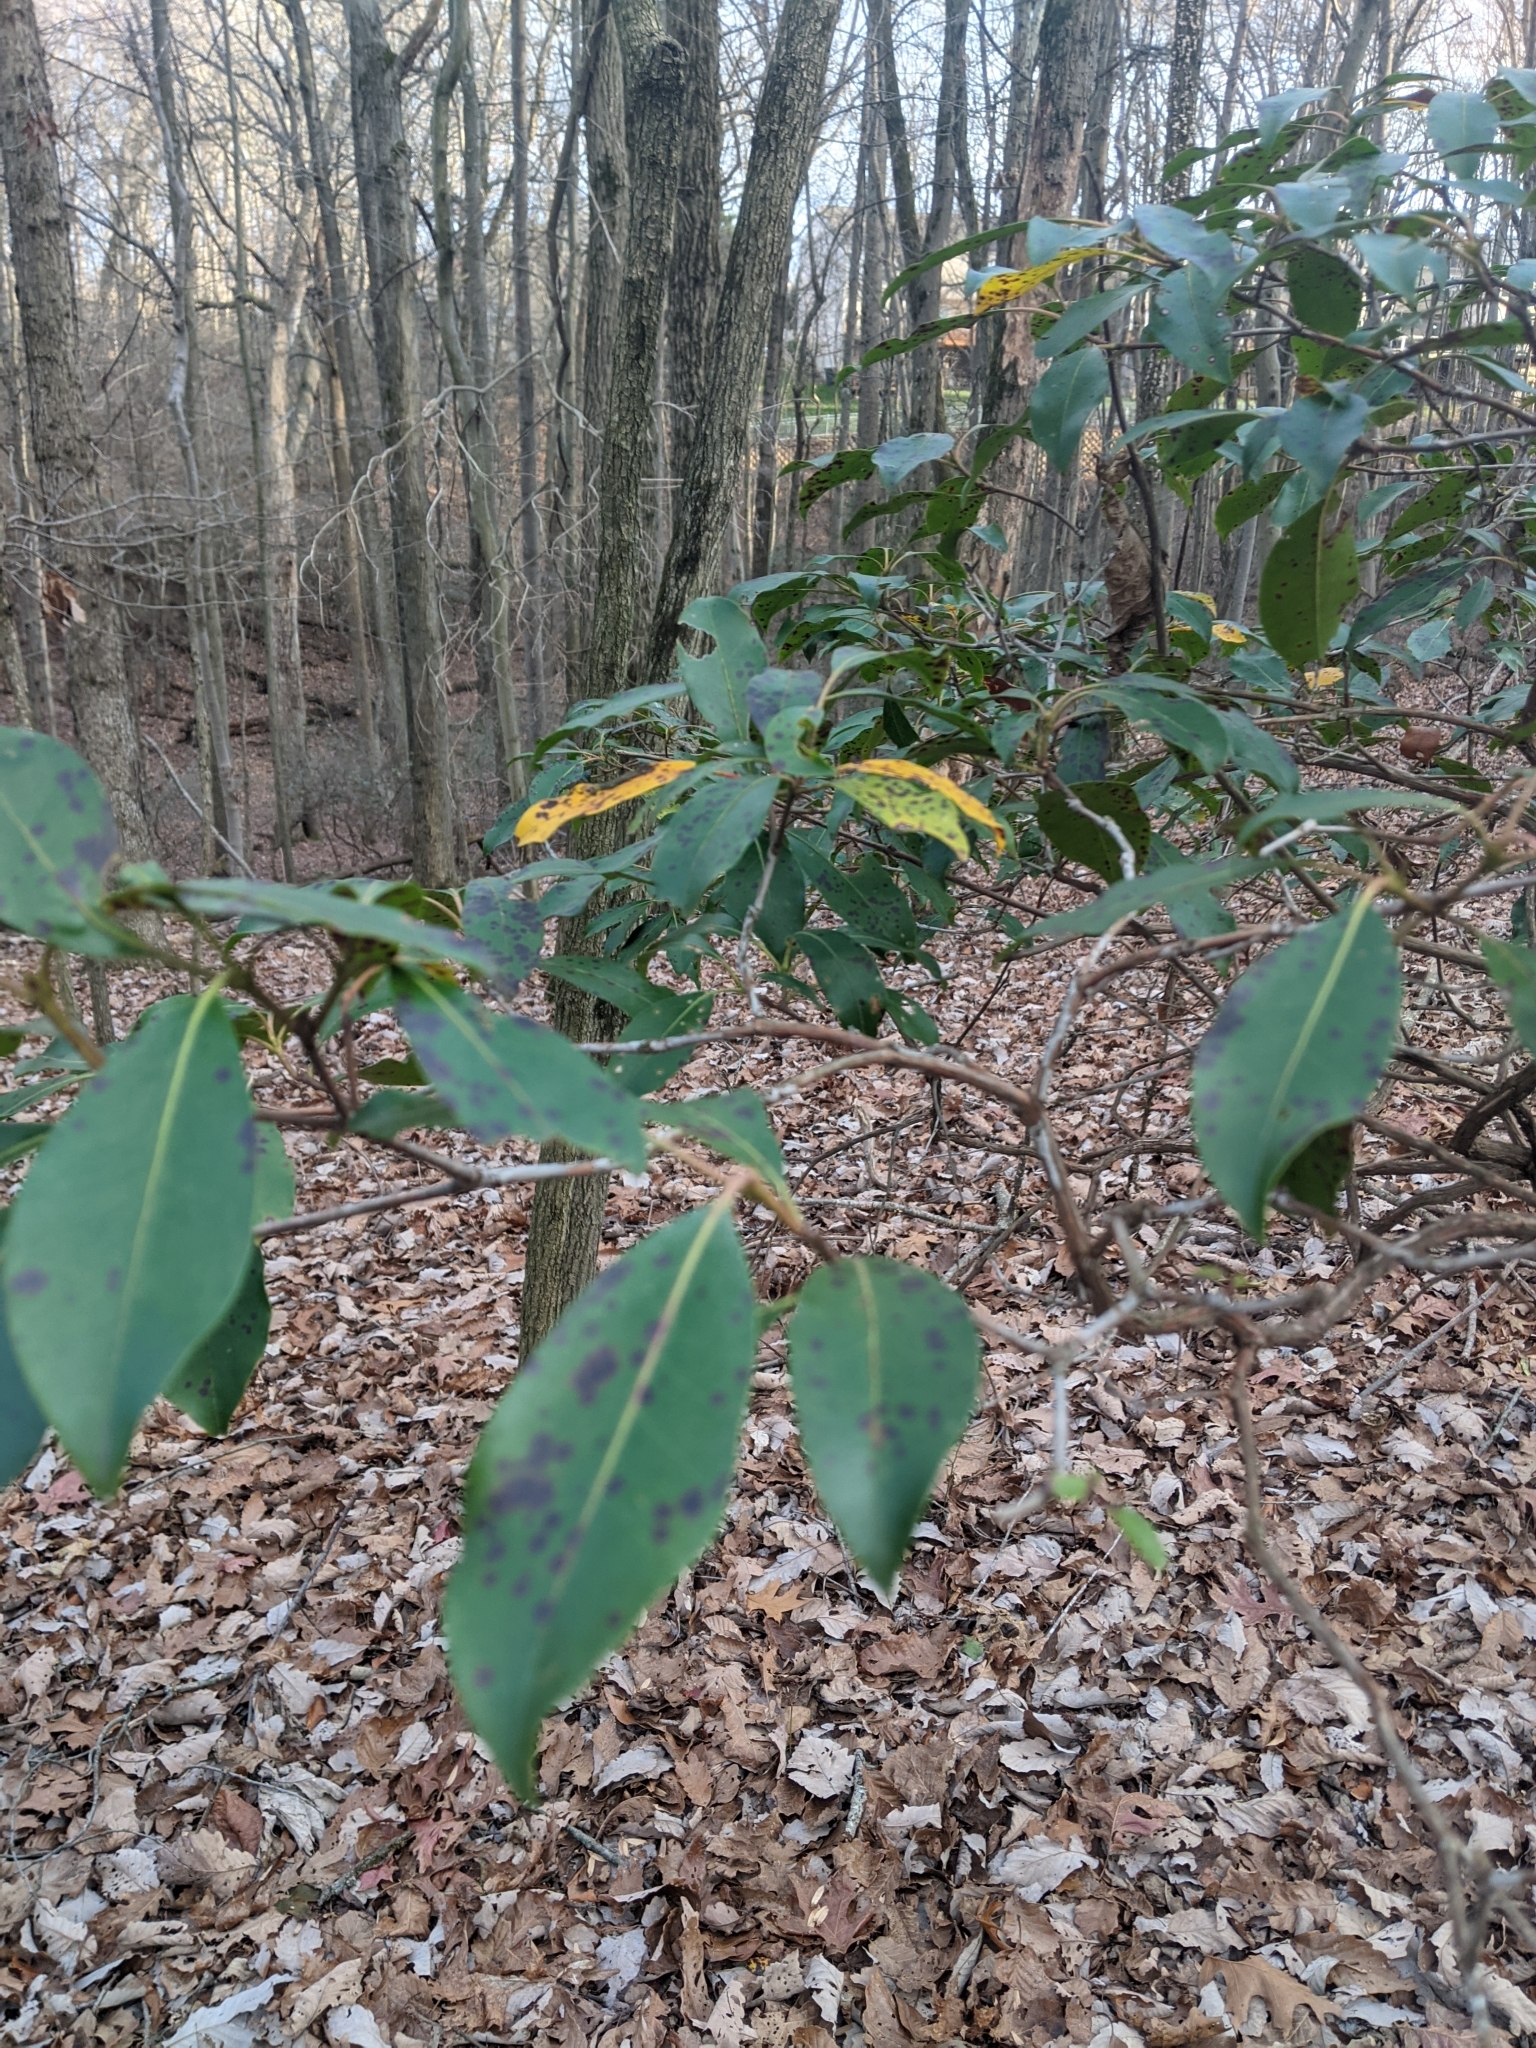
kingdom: Plantae
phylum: Tracheophyta
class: Magnoliopsida
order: Ericales
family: Ericaceae
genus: Kalmia
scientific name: Kalmia latifolia
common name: Mountain-laurel
